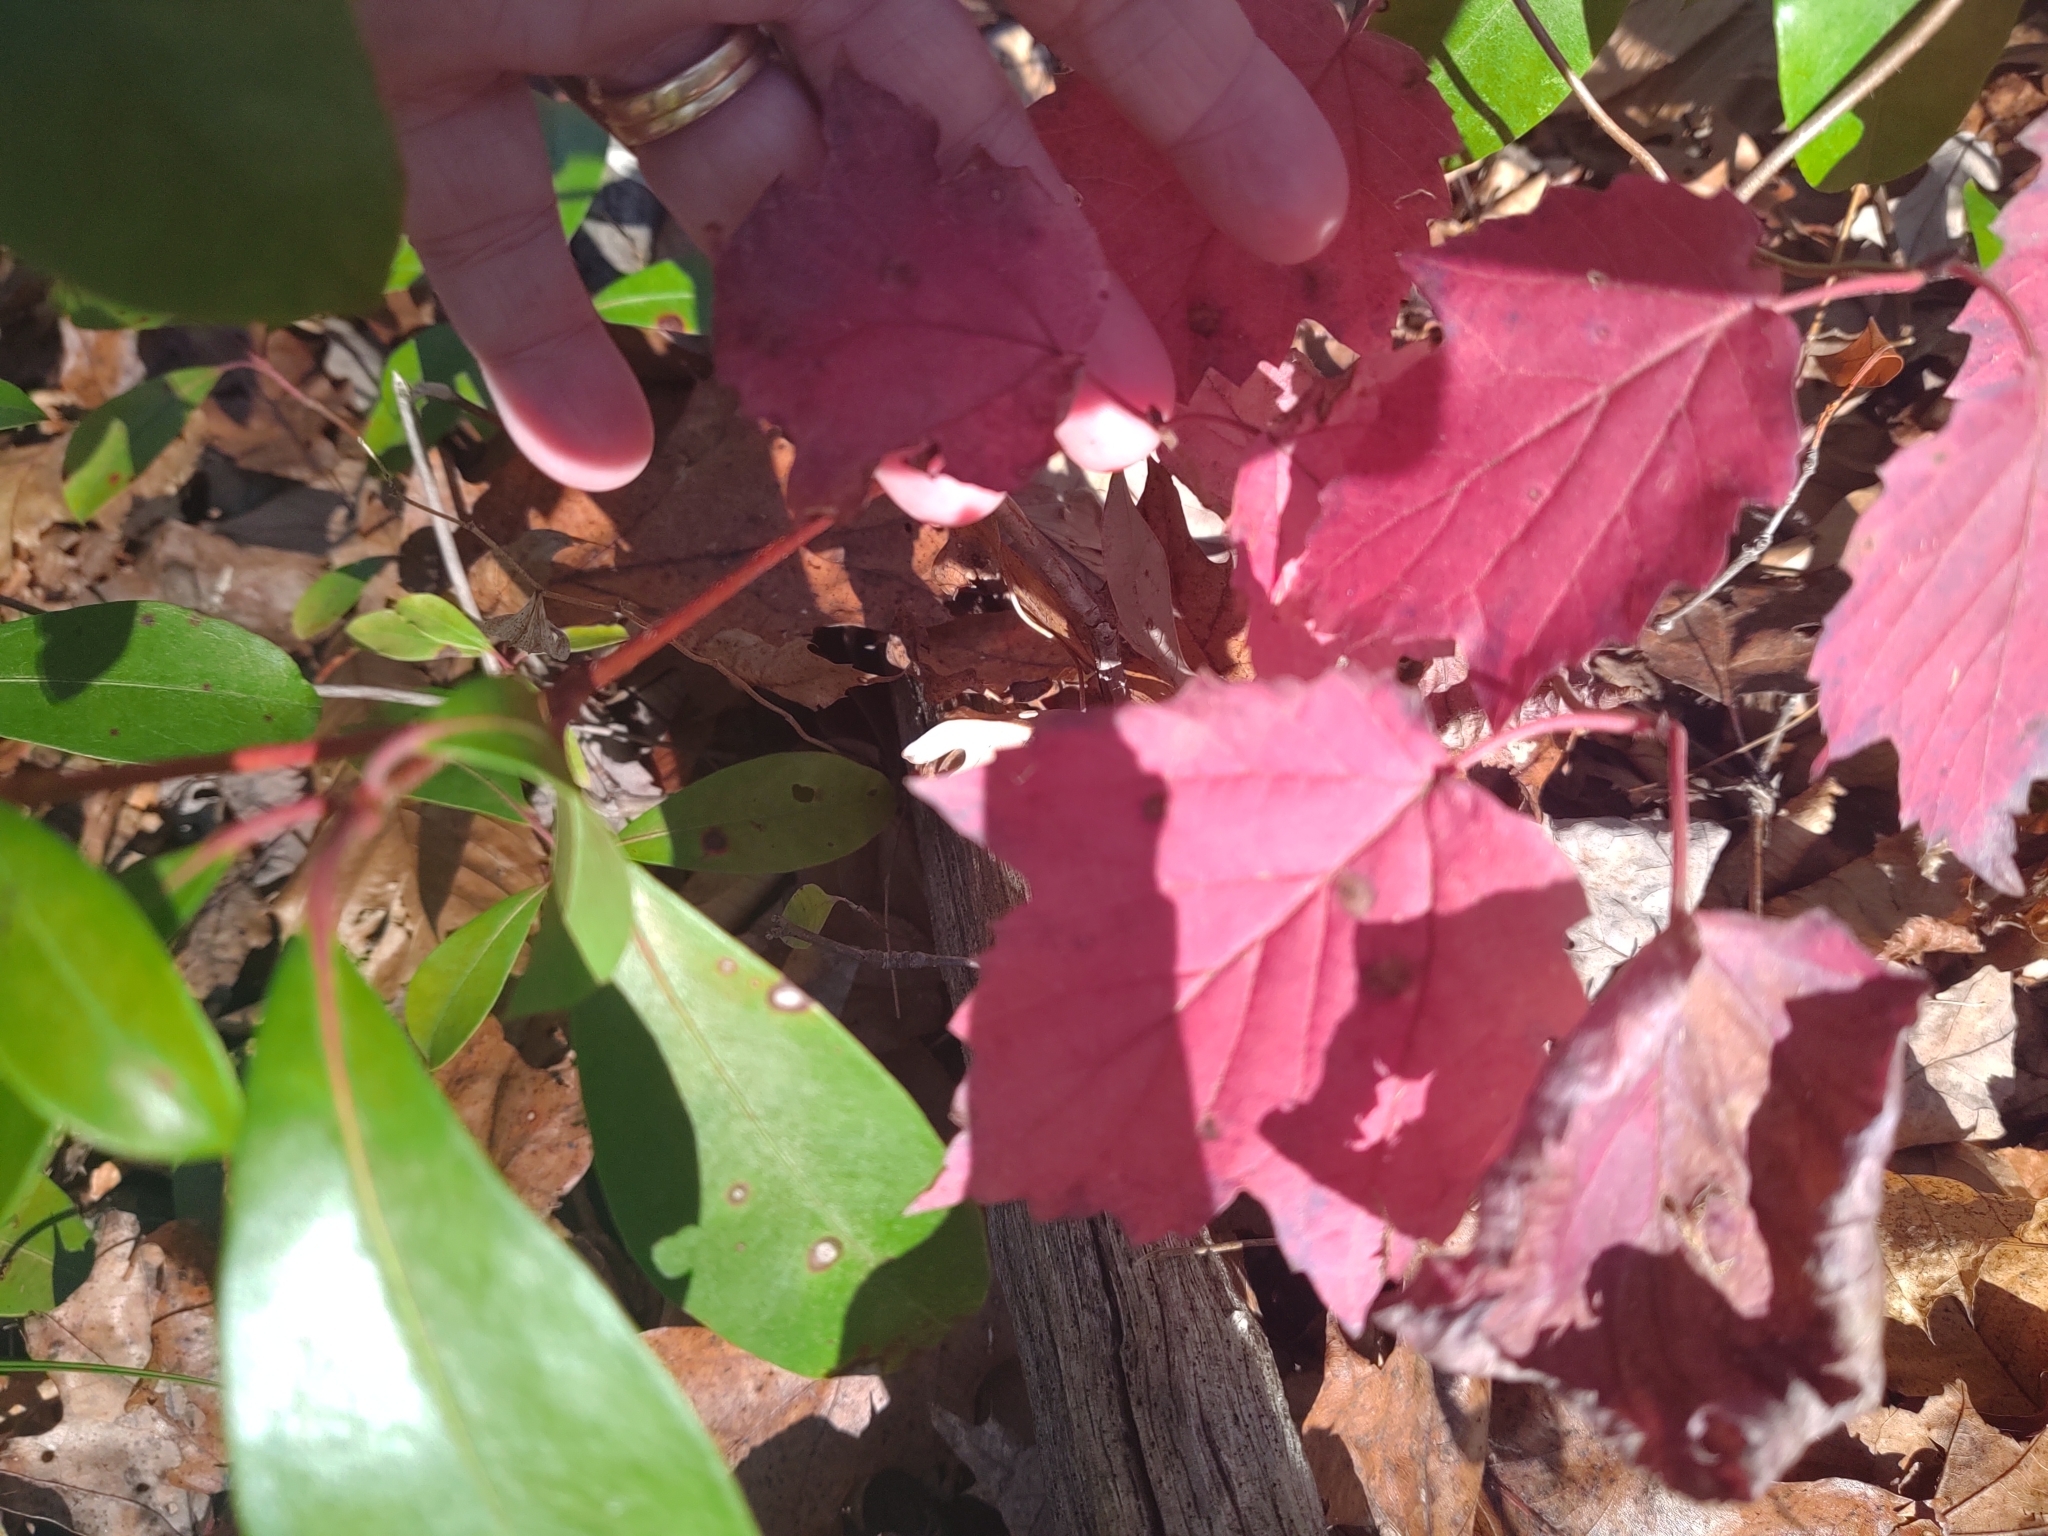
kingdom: Plantae
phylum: Tracheophyta
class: Magnoliopsida
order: Dipsacales
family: Viburnaceae
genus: Viburnum
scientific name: Viburnum acerifolium
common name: Dockmackie
